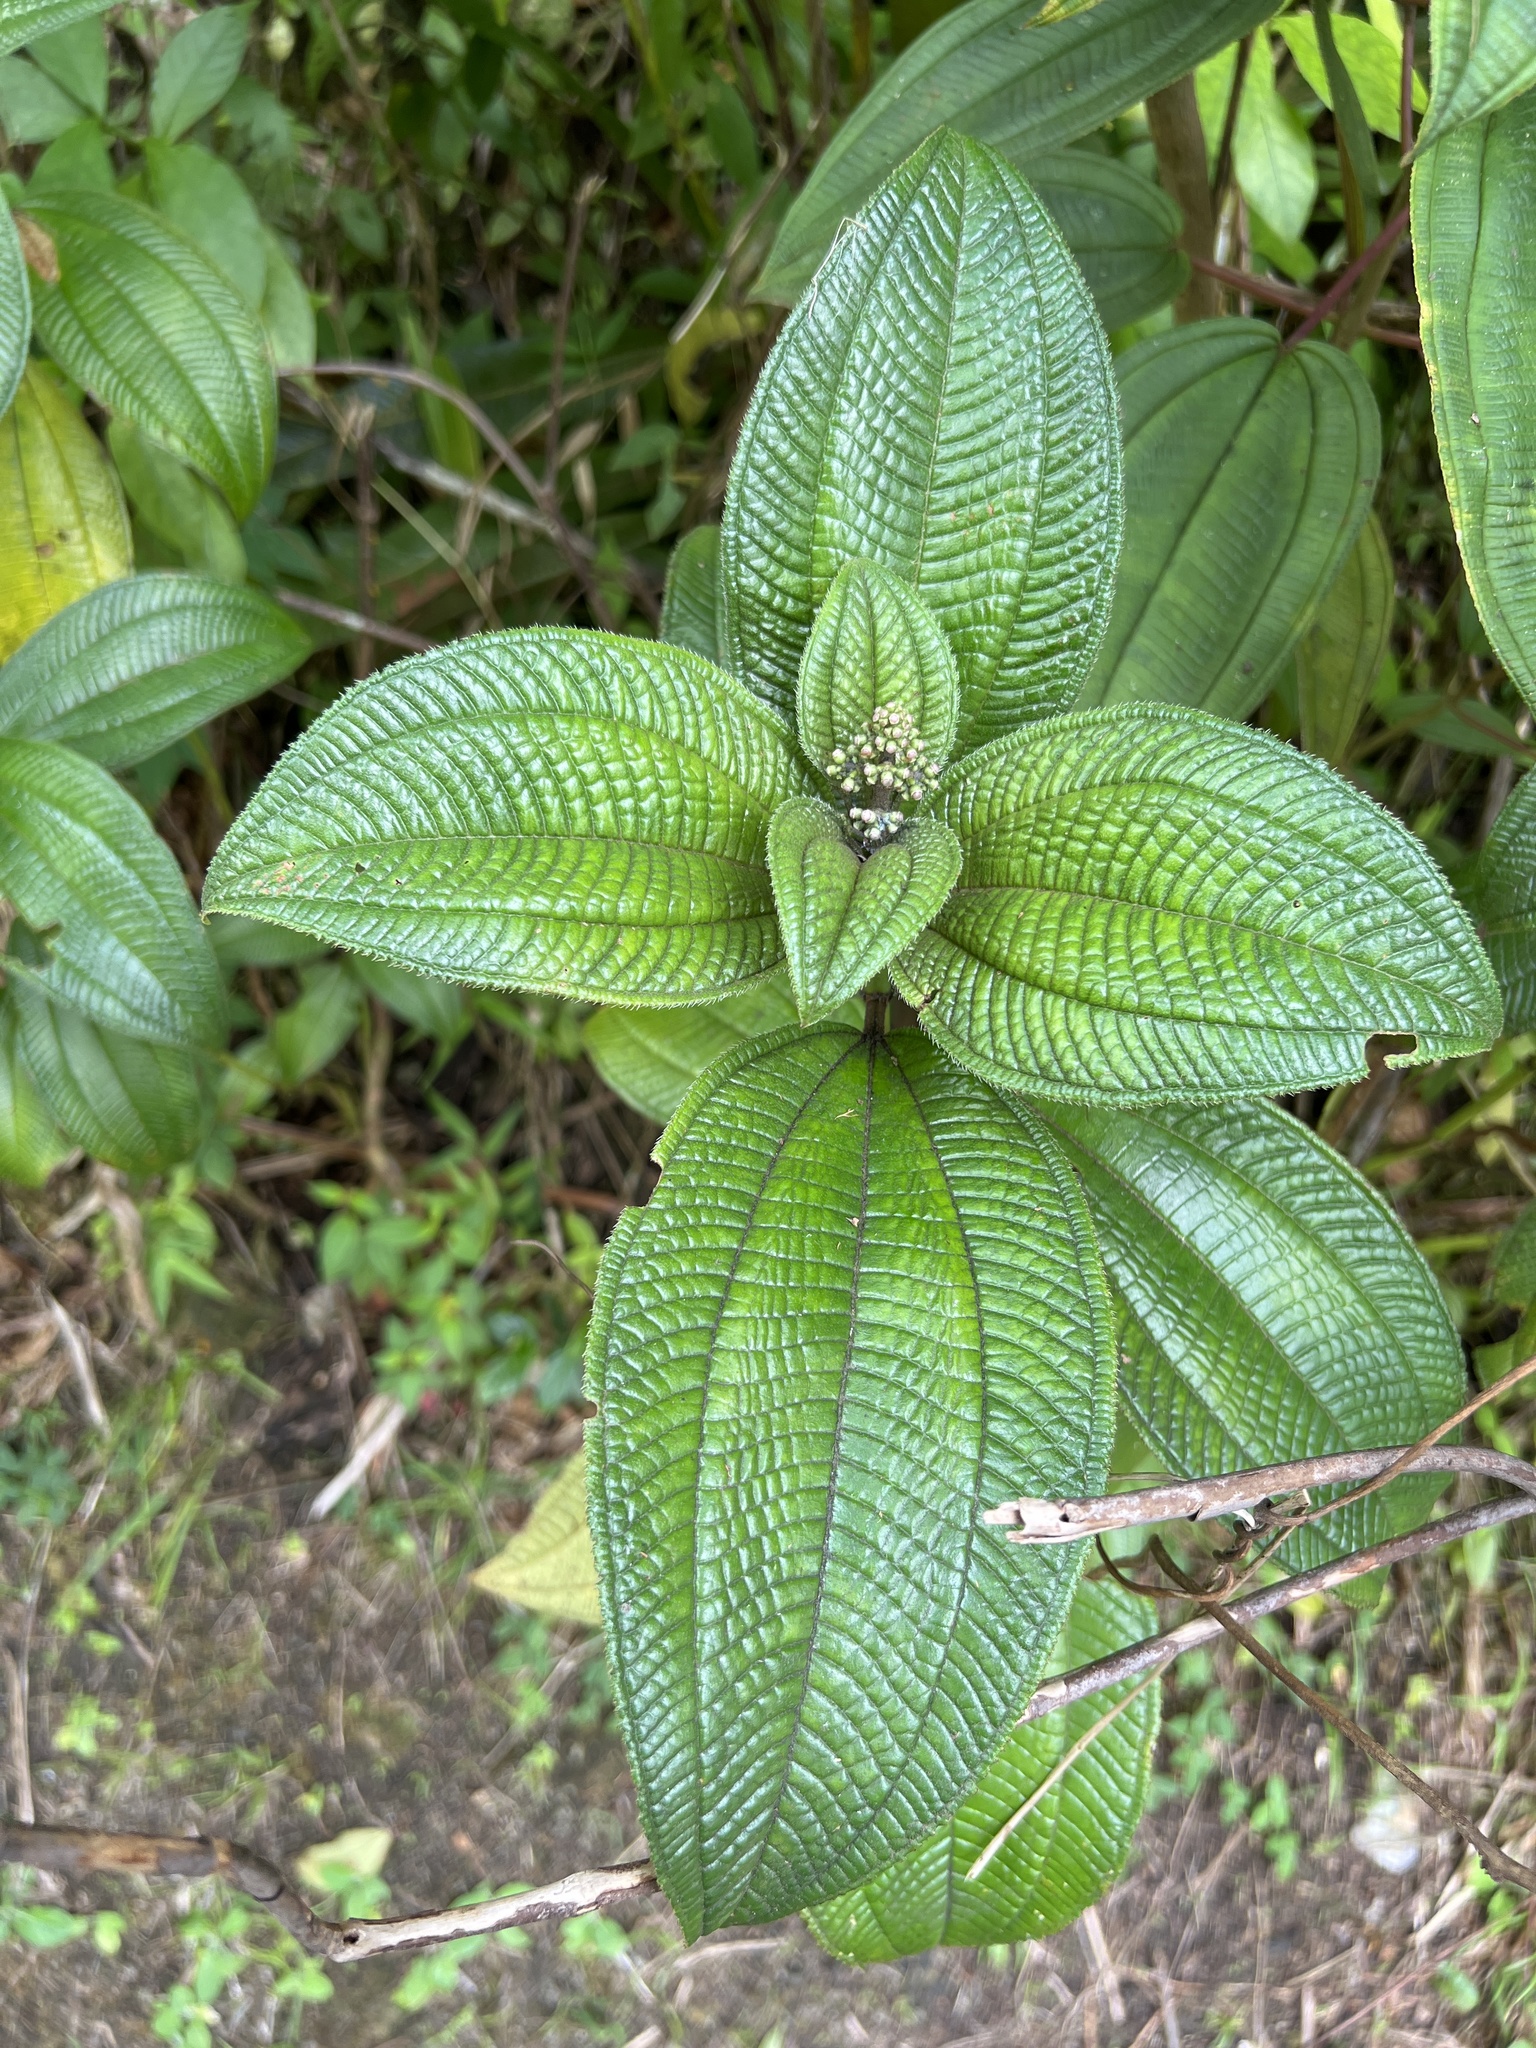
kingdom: Plantae
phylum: Tracheophyta
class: Magnoliopsida
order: Myrtales
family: Melastomataceae
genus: Miconia
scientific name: Miconia racemosa
